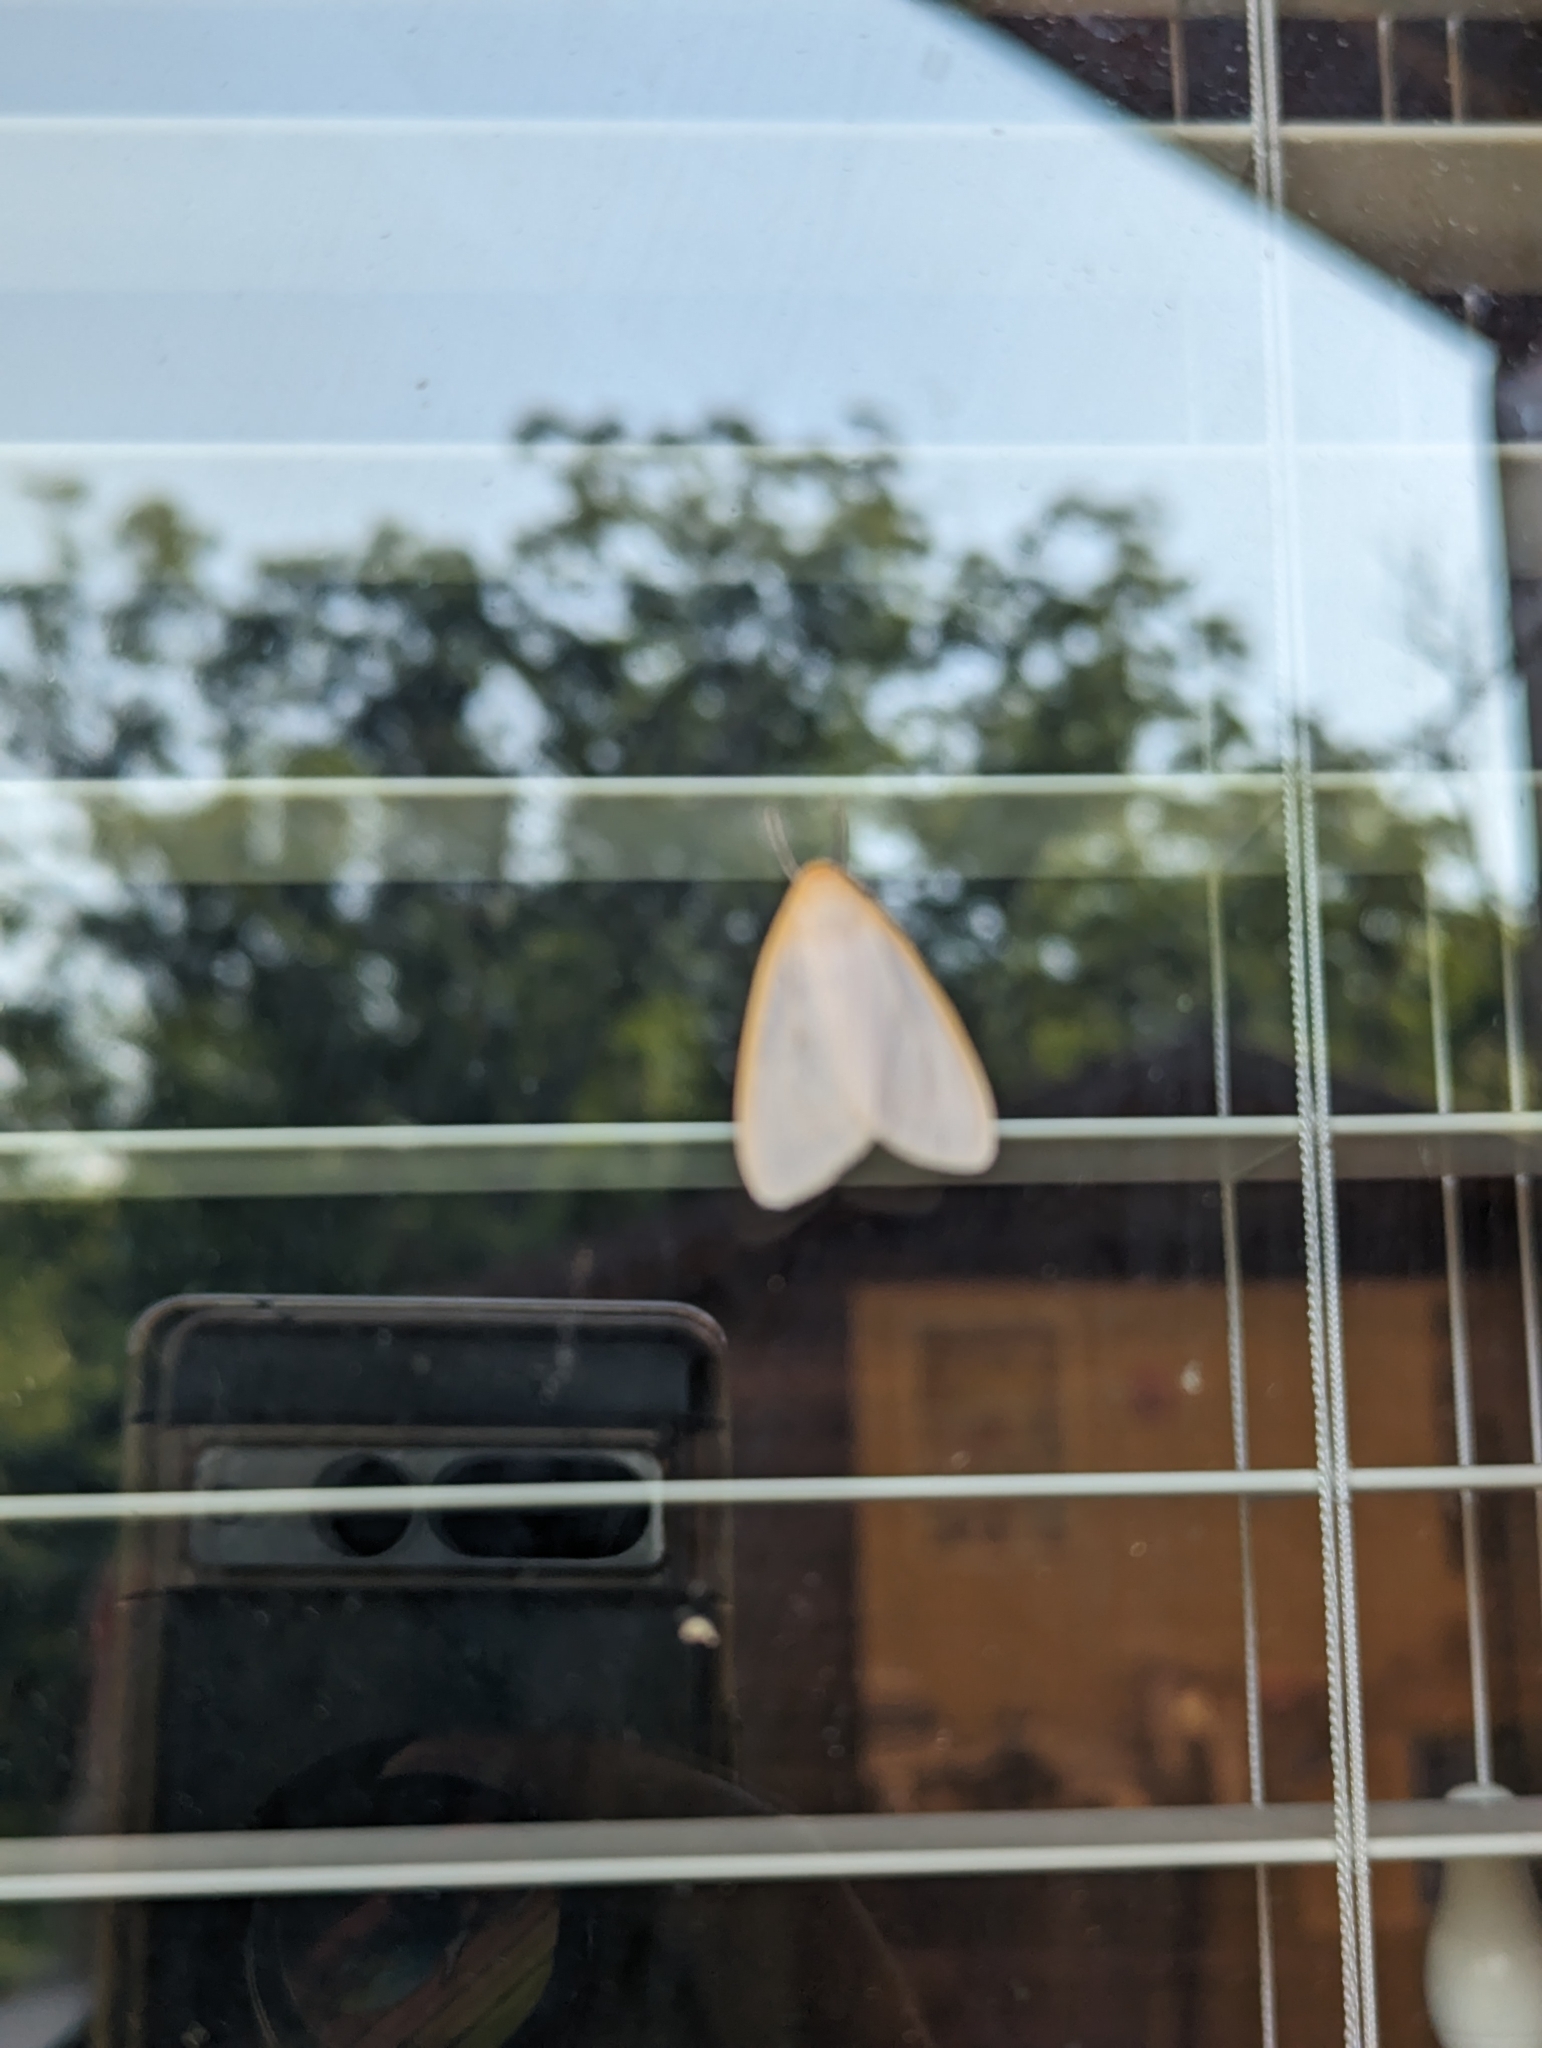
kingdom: Animalia
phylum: Arthropoda
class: Insecta
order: Lepidoptera
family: Erebidae
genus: Cycnia
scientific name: Cycnia tenera
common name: Delicate cycnia moth
